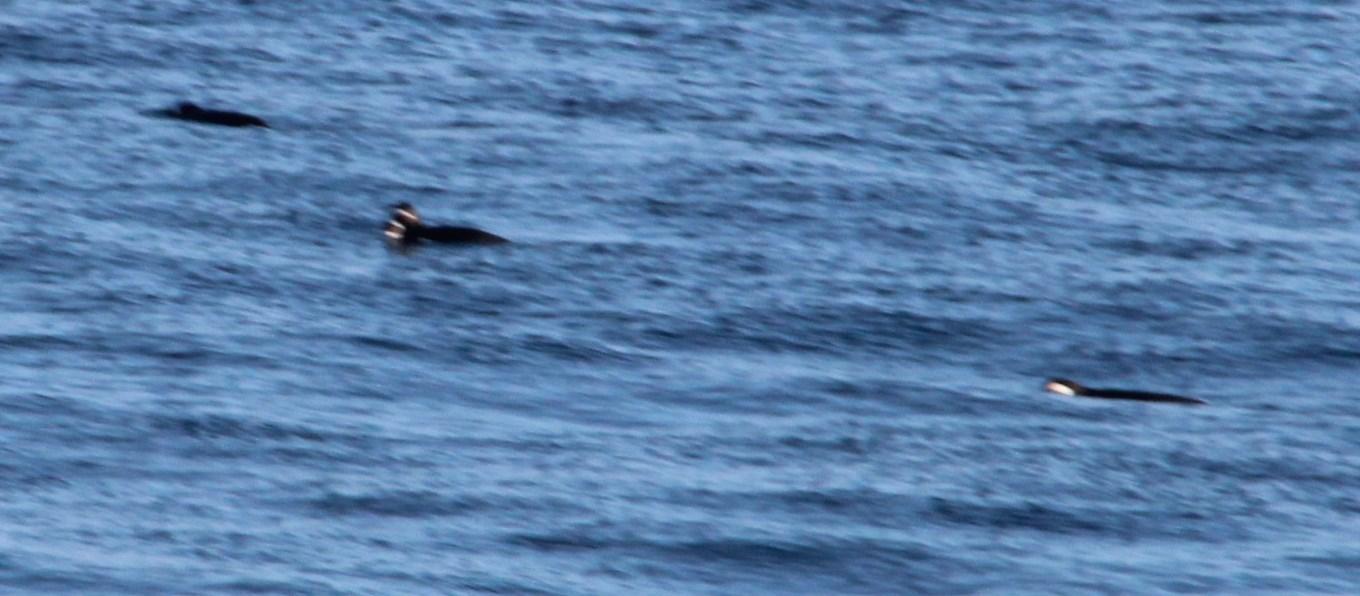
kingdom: Animalia
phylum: Chordata
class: Aves
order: Sphenisciformes
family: Spheniscidae
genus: Spheniscus
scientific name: Spheniscus magellanicus
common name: Magellanic penguin
